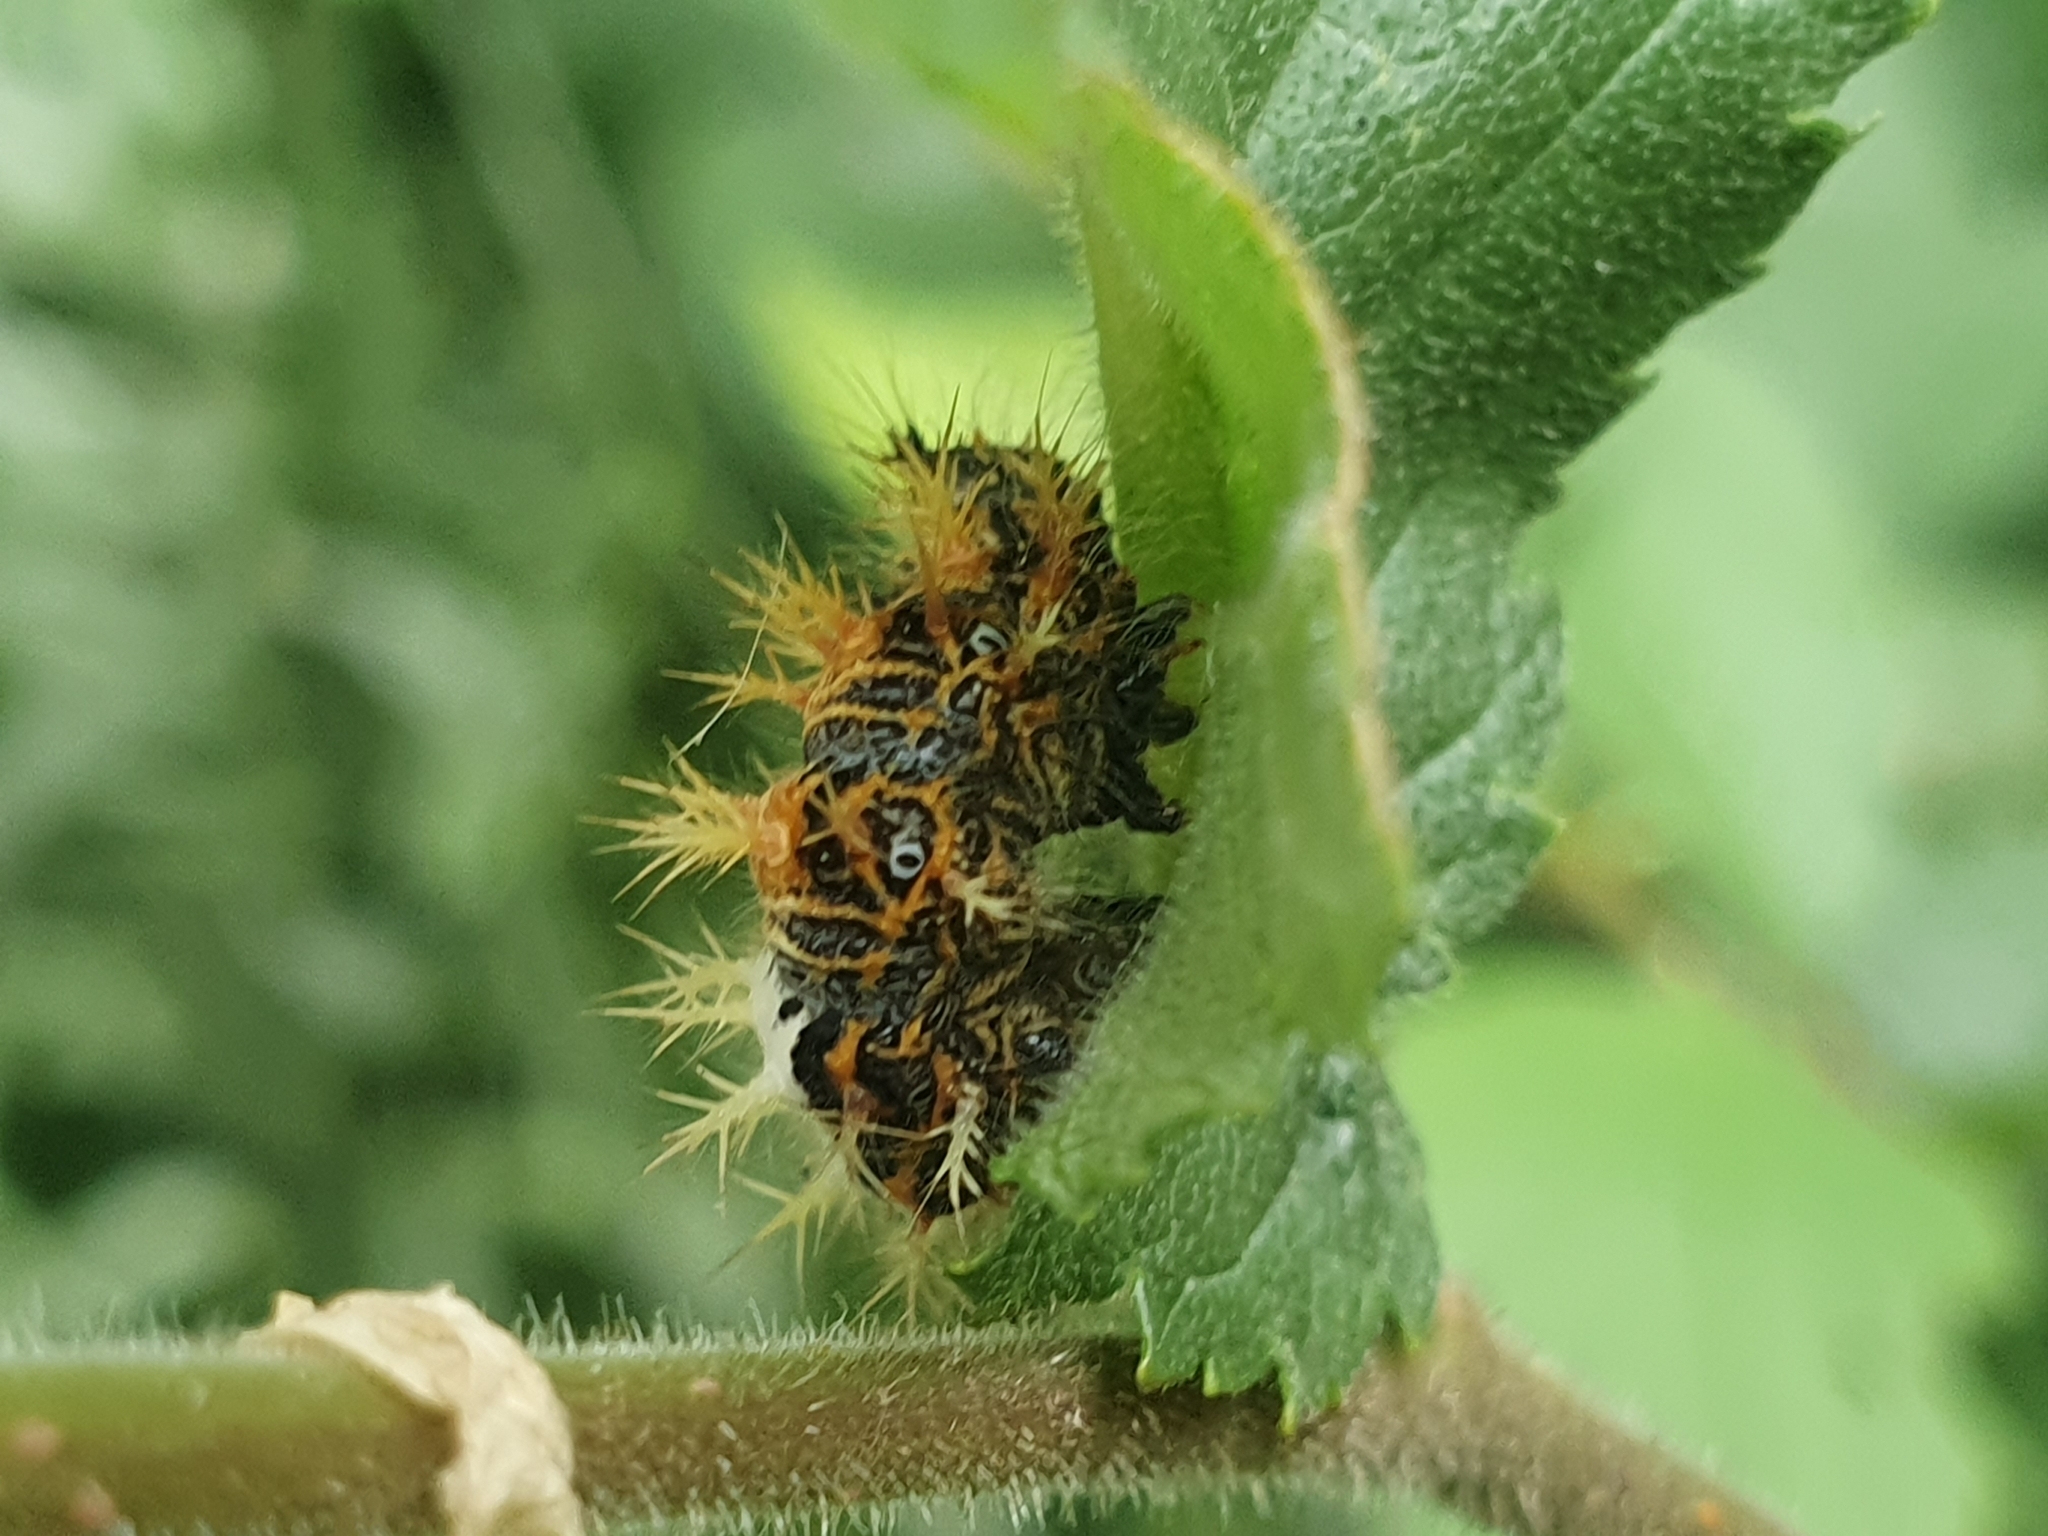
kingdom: Animalia
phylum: Arthropoda
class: Insecta
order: Lepidoptera
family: Nymphalidae
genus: Polygonia
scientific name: Polygonia c-album
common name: Comma
